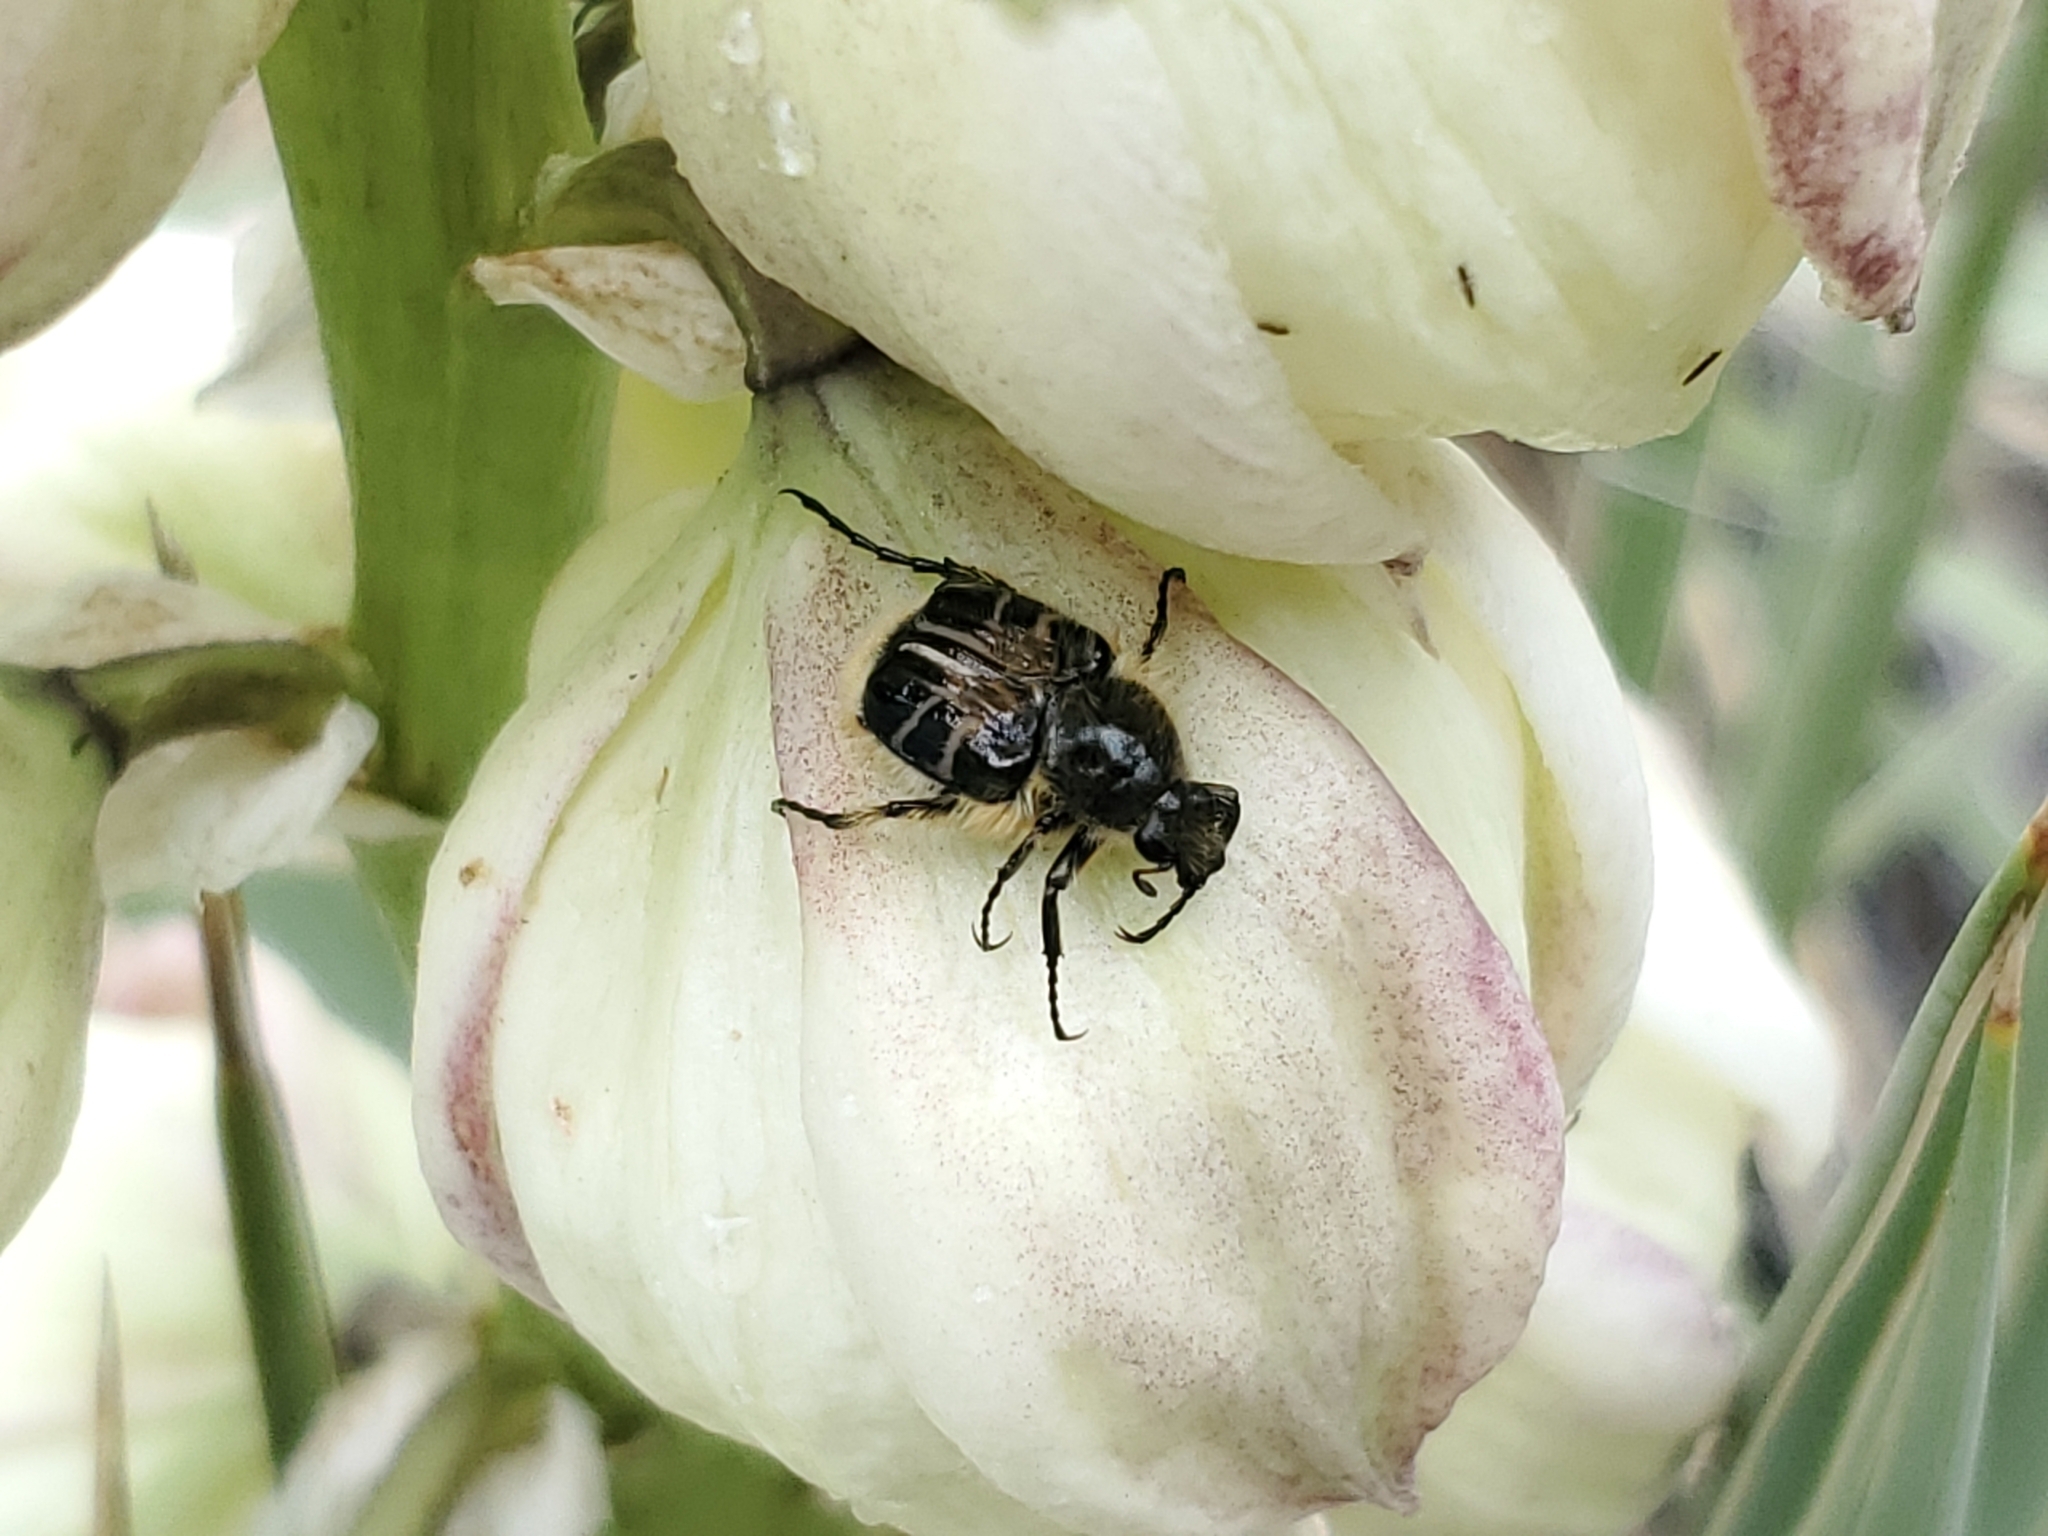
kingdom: Animalia
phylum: Arthropoda
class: Insecta
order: Coleoptera
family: Scarabaeidae
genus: Trichiotinus
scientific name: Trichiotinus assimilis
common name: Bee-mimic beetle
